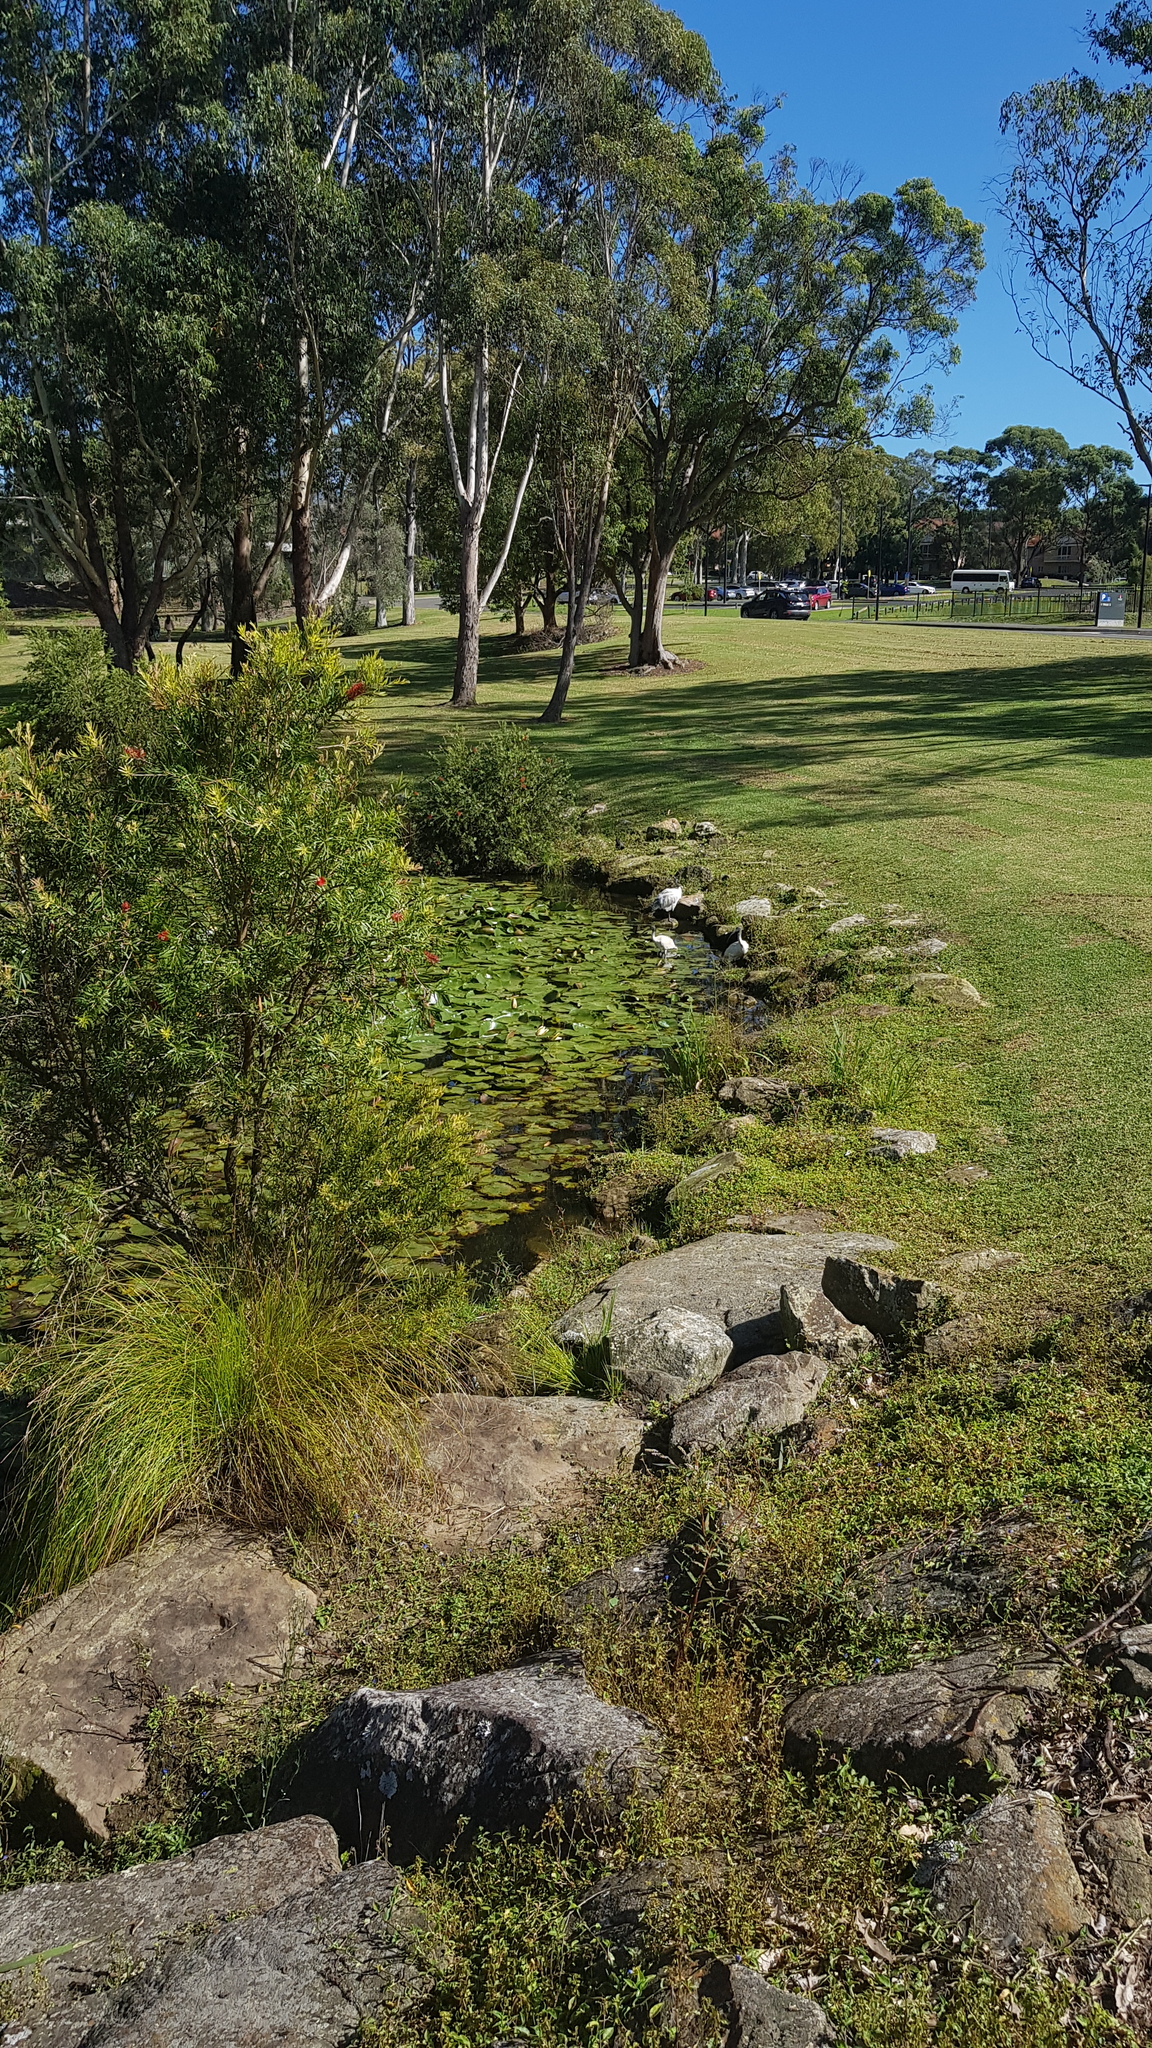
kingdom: Animalia
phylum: Chordata
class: Aves
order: Pelecaniformes
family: Threskiornithidae
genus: Threskiornis
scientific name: Threskiornis molucca
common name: Australian white ibis
